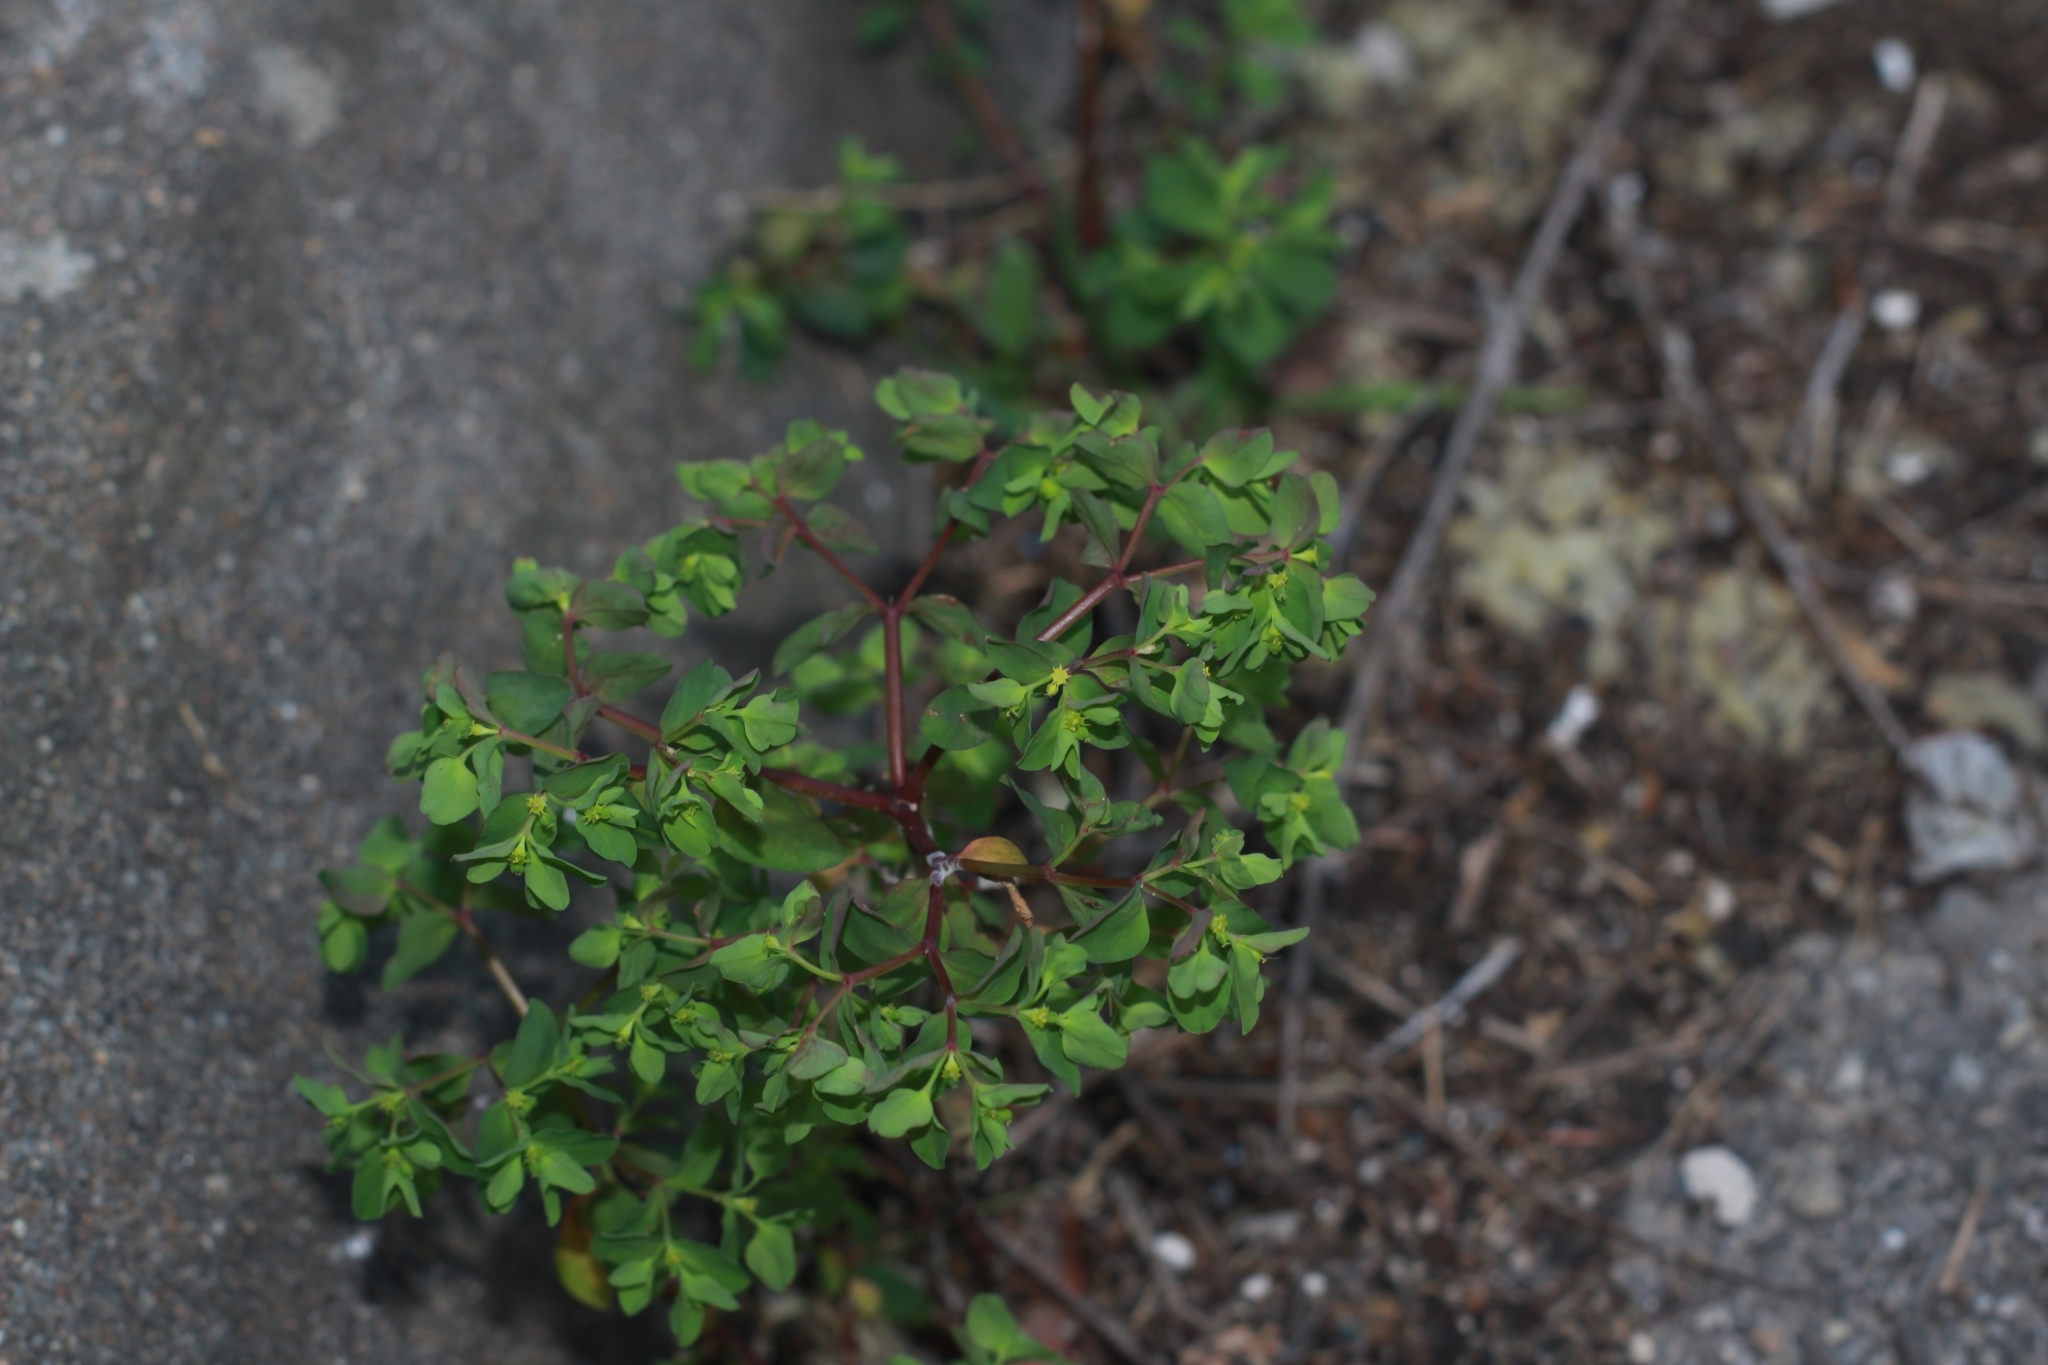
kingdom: Plantae
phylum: Tracheophyta
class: Magnoliopsida
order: Malpighiales
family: Euphorbiaceae
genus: Euphorbia
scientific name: Euphorbia peplus
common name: Petty spurge
